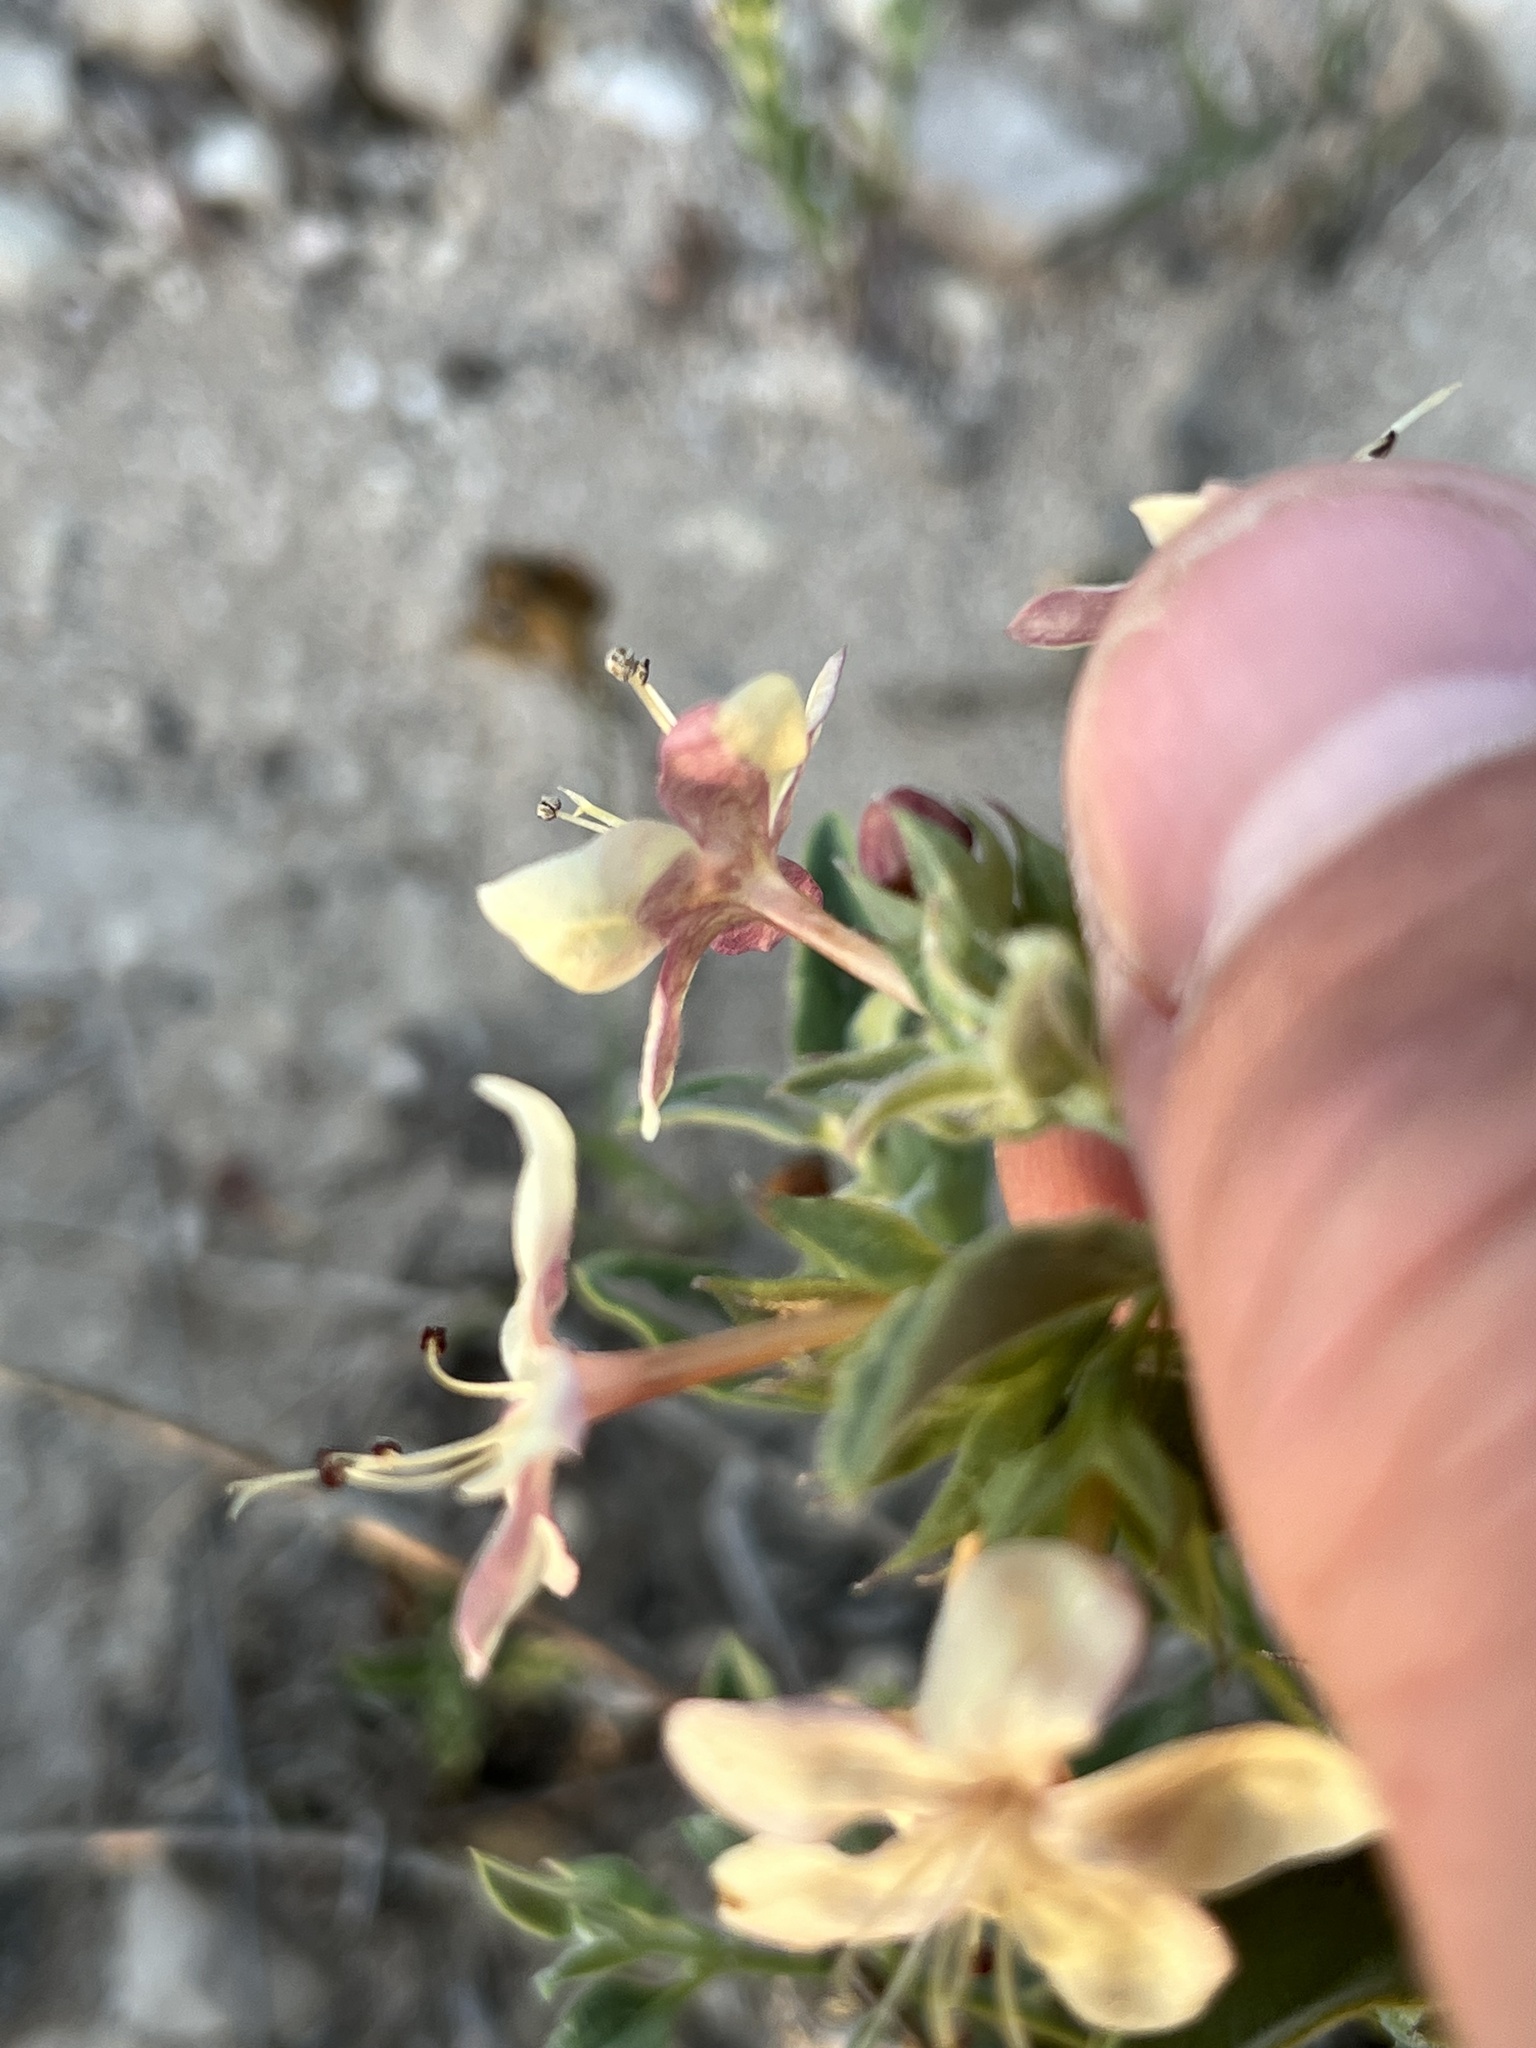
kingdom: Plantae
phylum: Tracheophyta
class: Magnoliopsida
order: Lamiales
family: Lamiaceae
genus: Tetraclea
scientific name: Tetraclea coulteri
